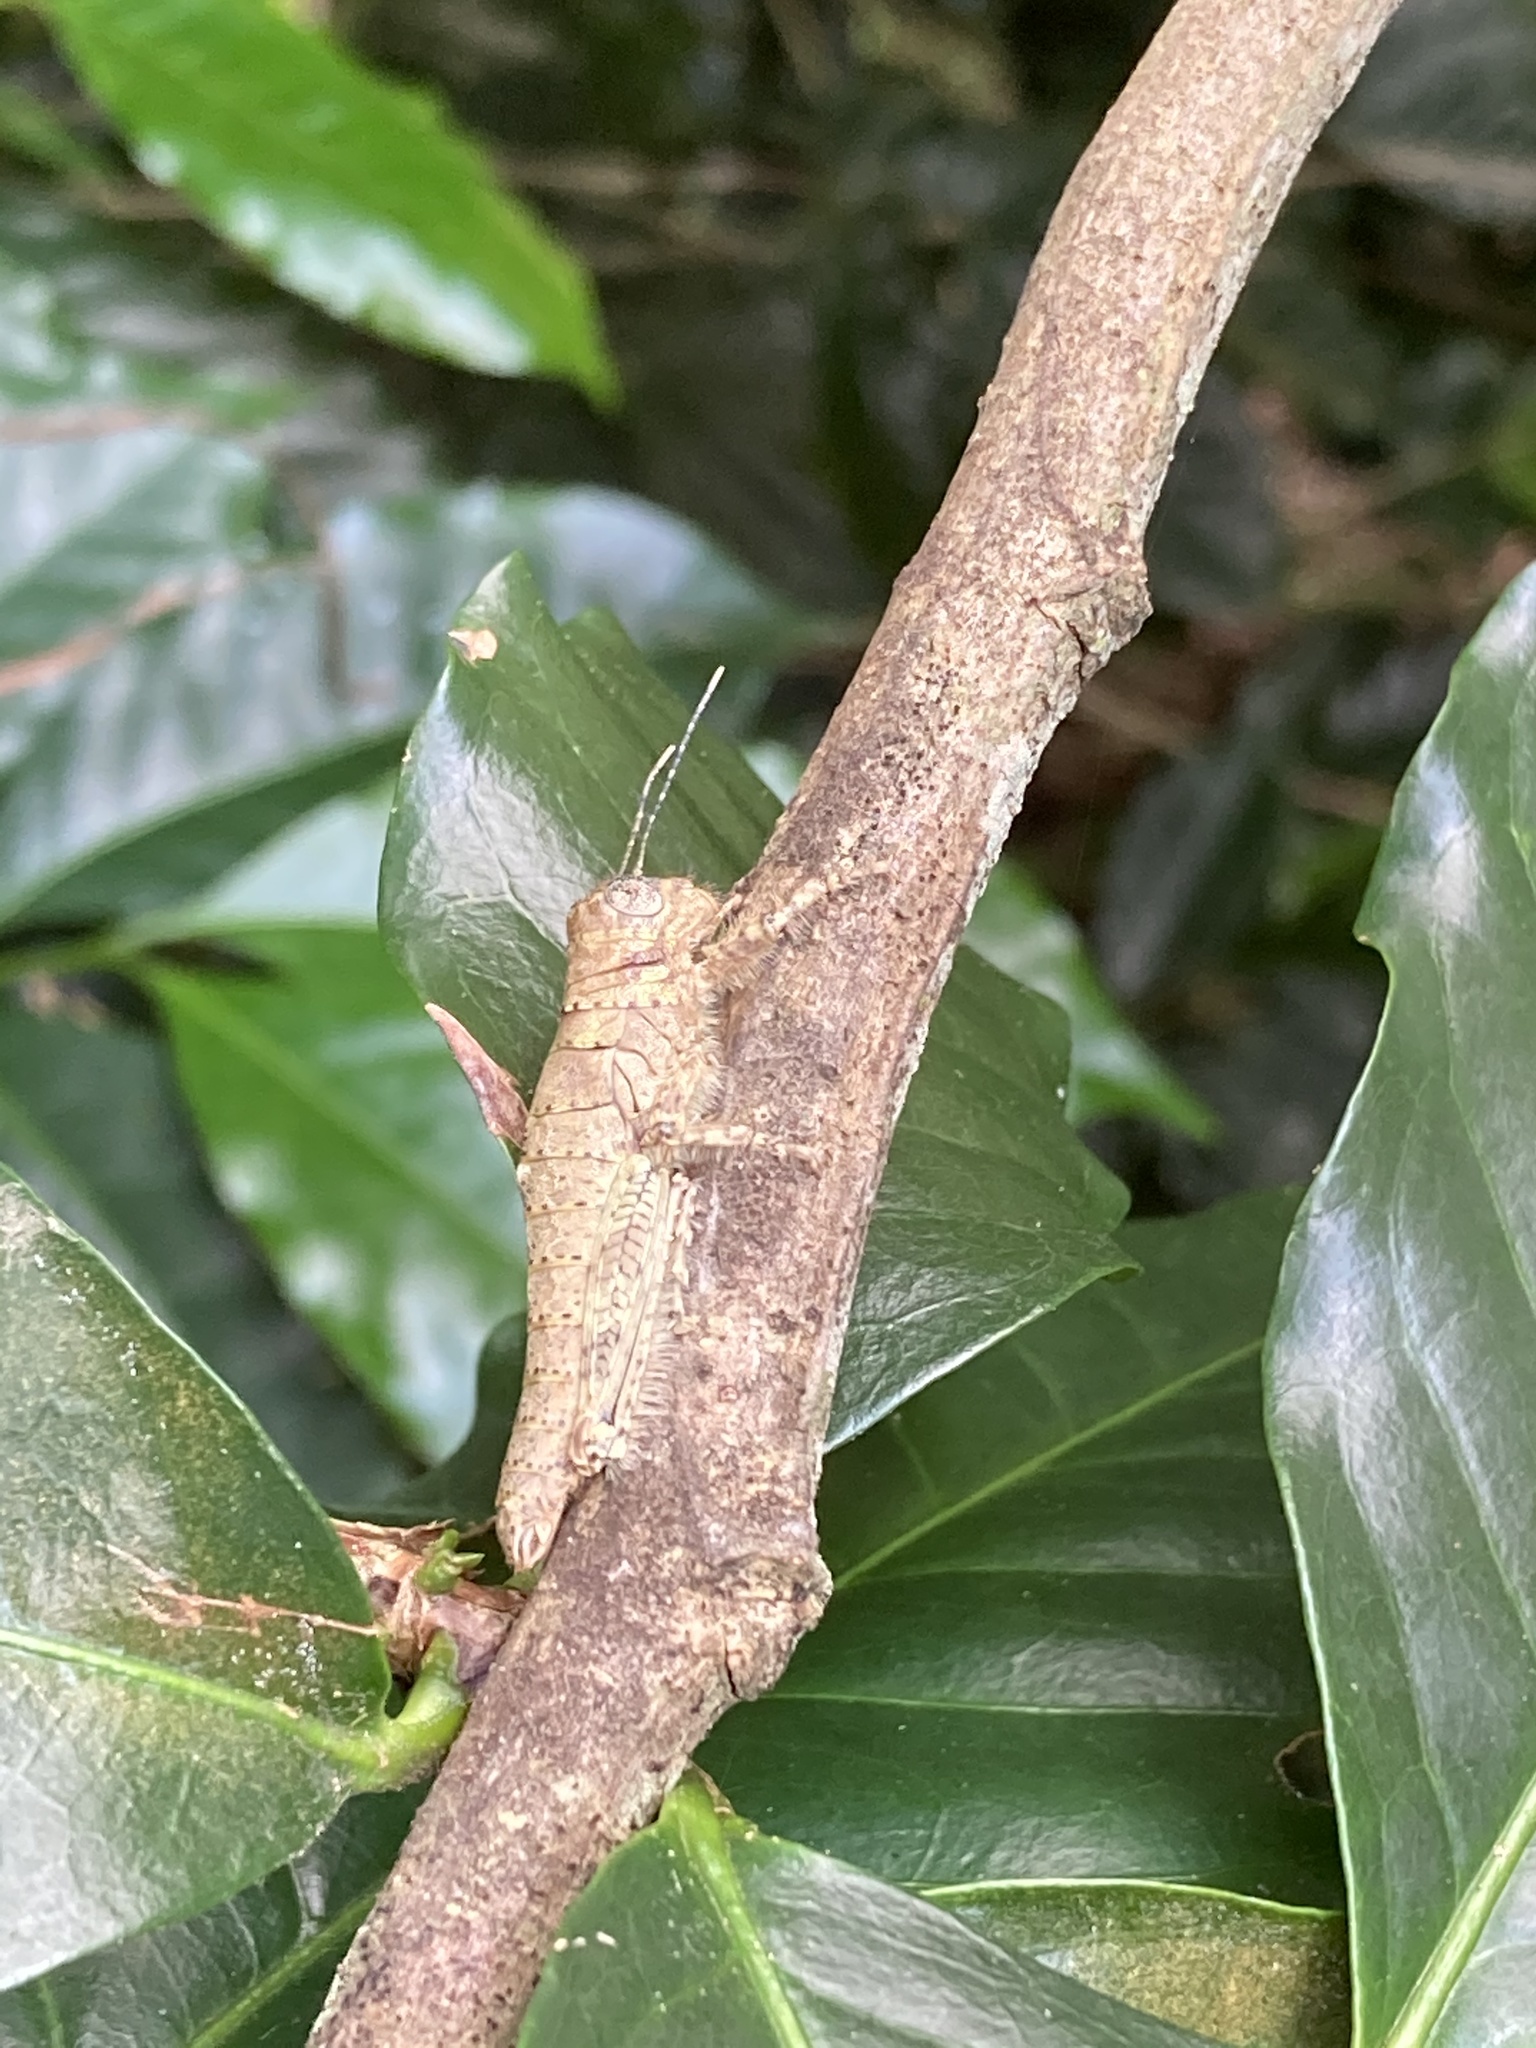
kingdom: Animalia
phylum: Arthropoda
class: Insecta
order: Orthoptera
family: Romaleidae
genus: Pararhicnoderma
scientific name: Pararhicnoderma eniocanoi
